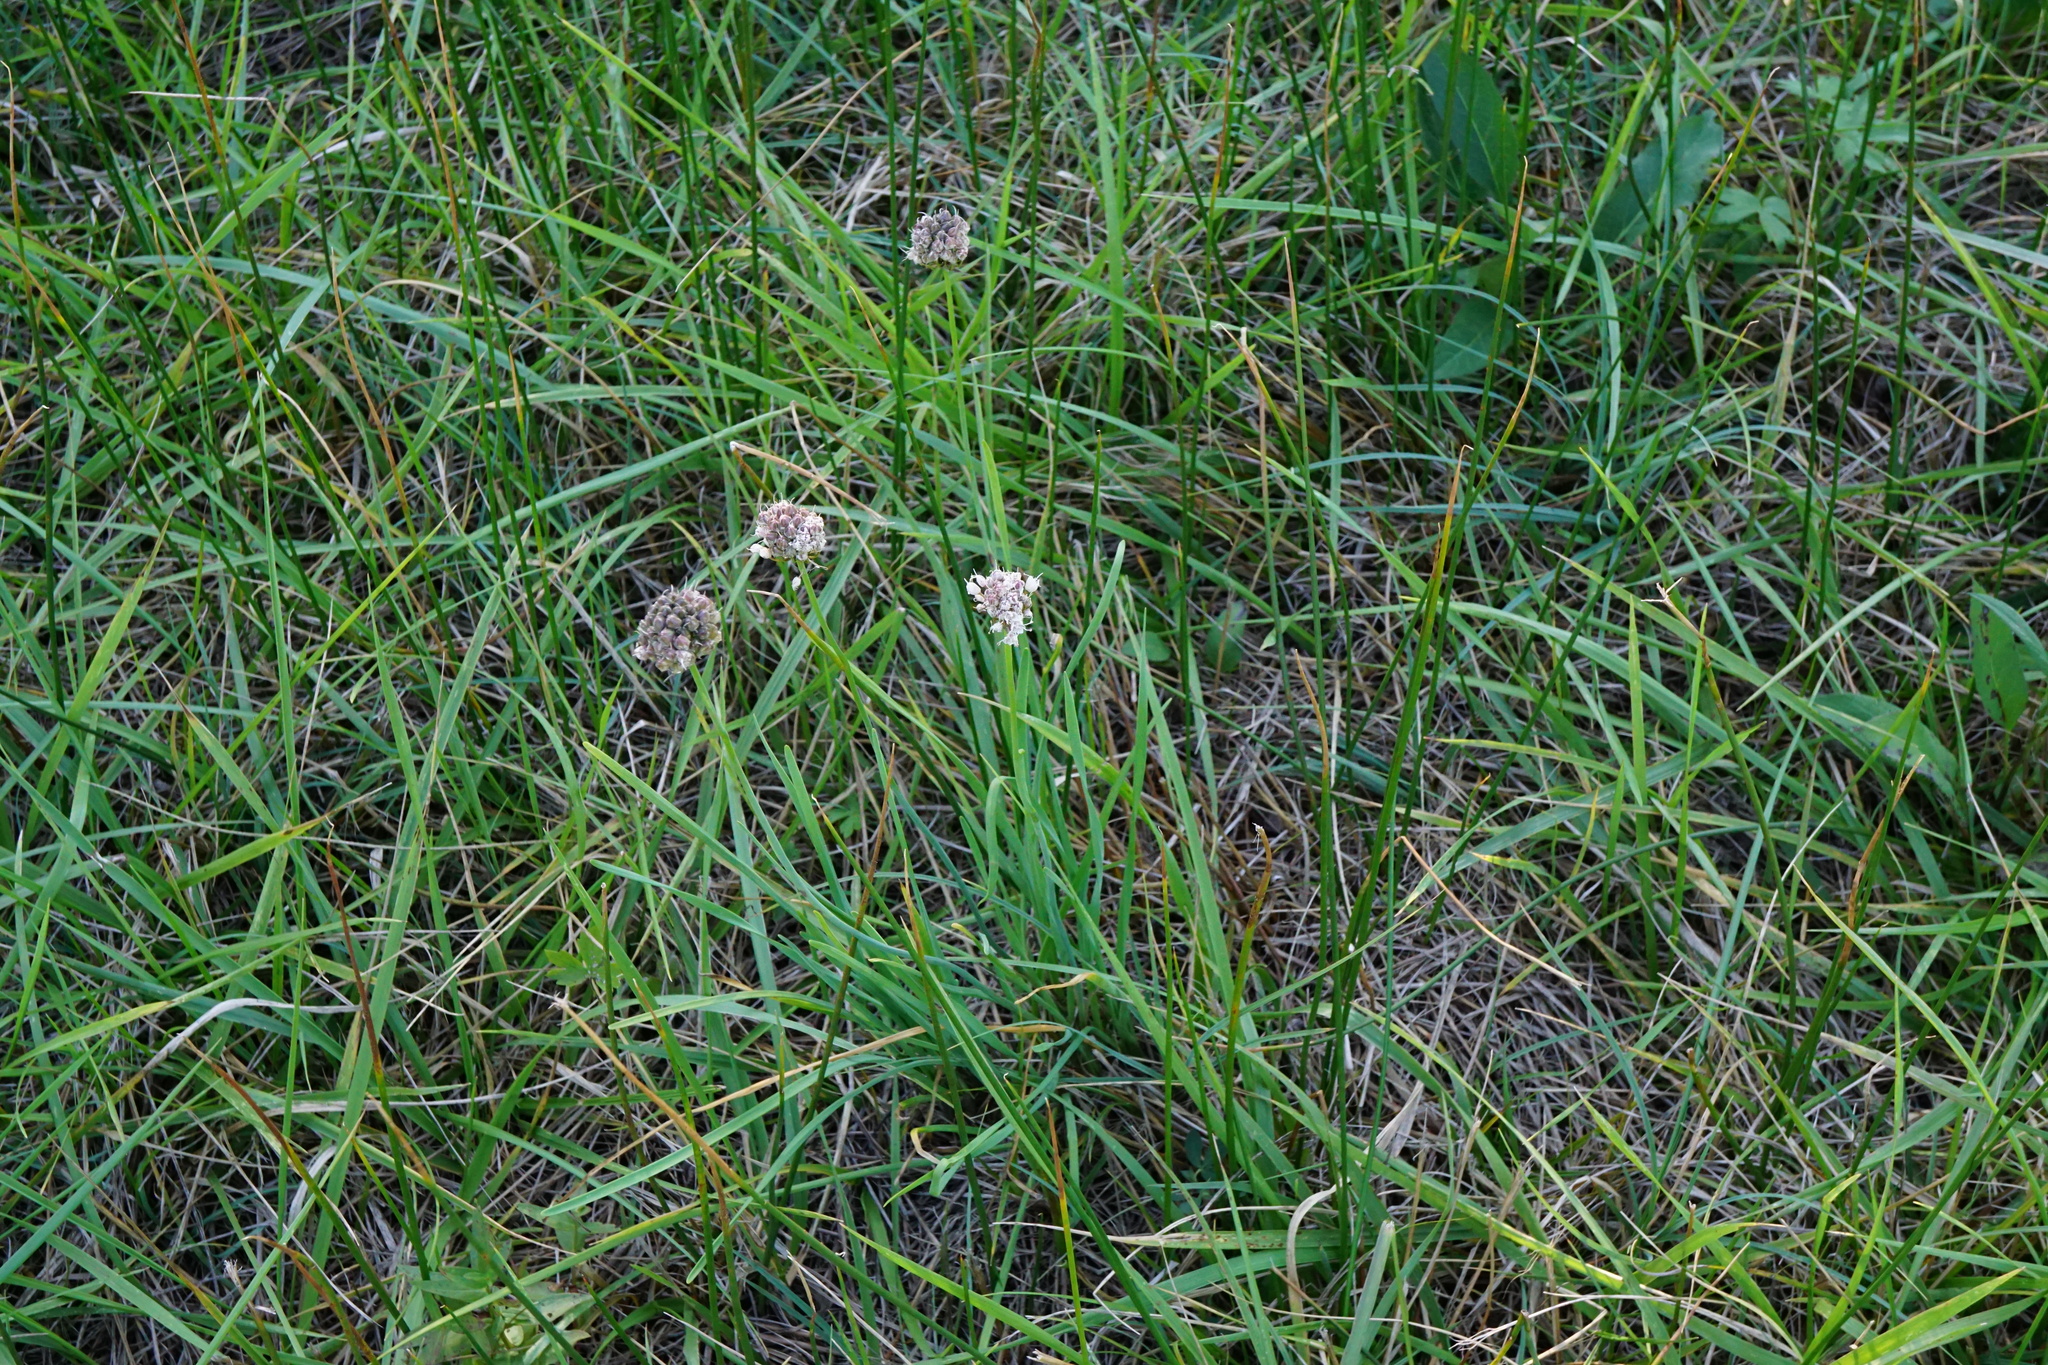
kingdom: Plantae
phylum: Tracheophyta
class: Liliopsida
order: Asparagales
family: Amaryllidaceae
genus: Allium
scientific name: Allium suaveolens
